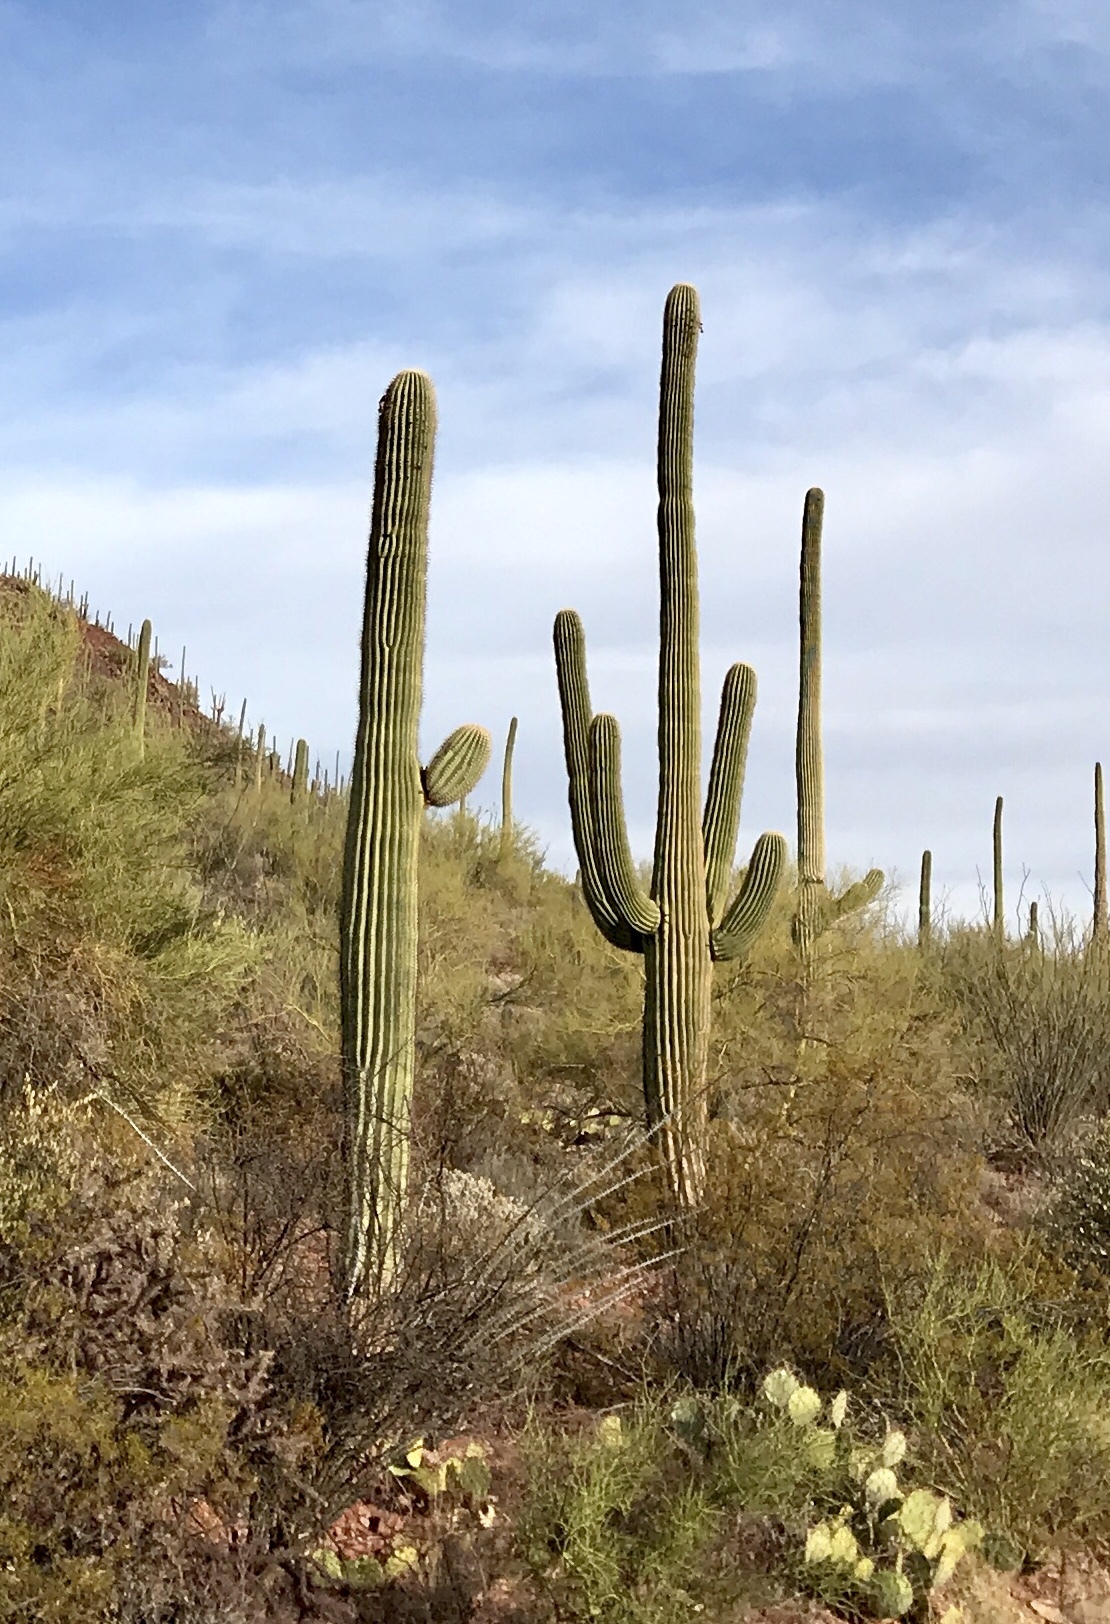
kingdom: Plantae
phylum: Tracheophyta
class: Magnoliopsida
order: Caryophyllales
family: Cactaceae
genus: Carnegiea
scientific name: Carnegiea gigantea
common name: Saguaro
